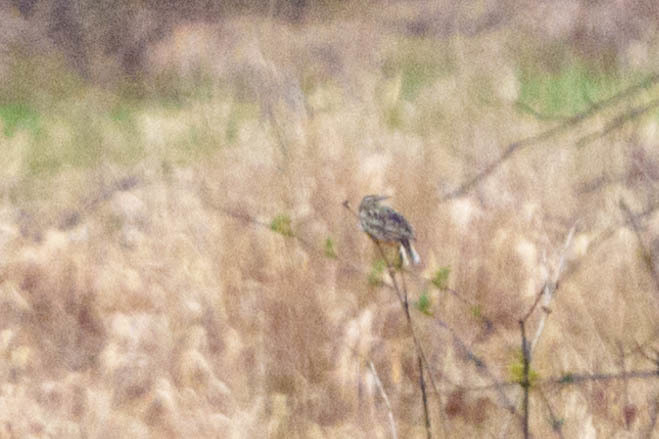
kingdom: Animalia
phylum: Chordata
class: Aves
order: Passeriformes
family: Icteridae
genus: Sturnella
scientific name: Sturnella neglecta
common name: Western meadowlark
